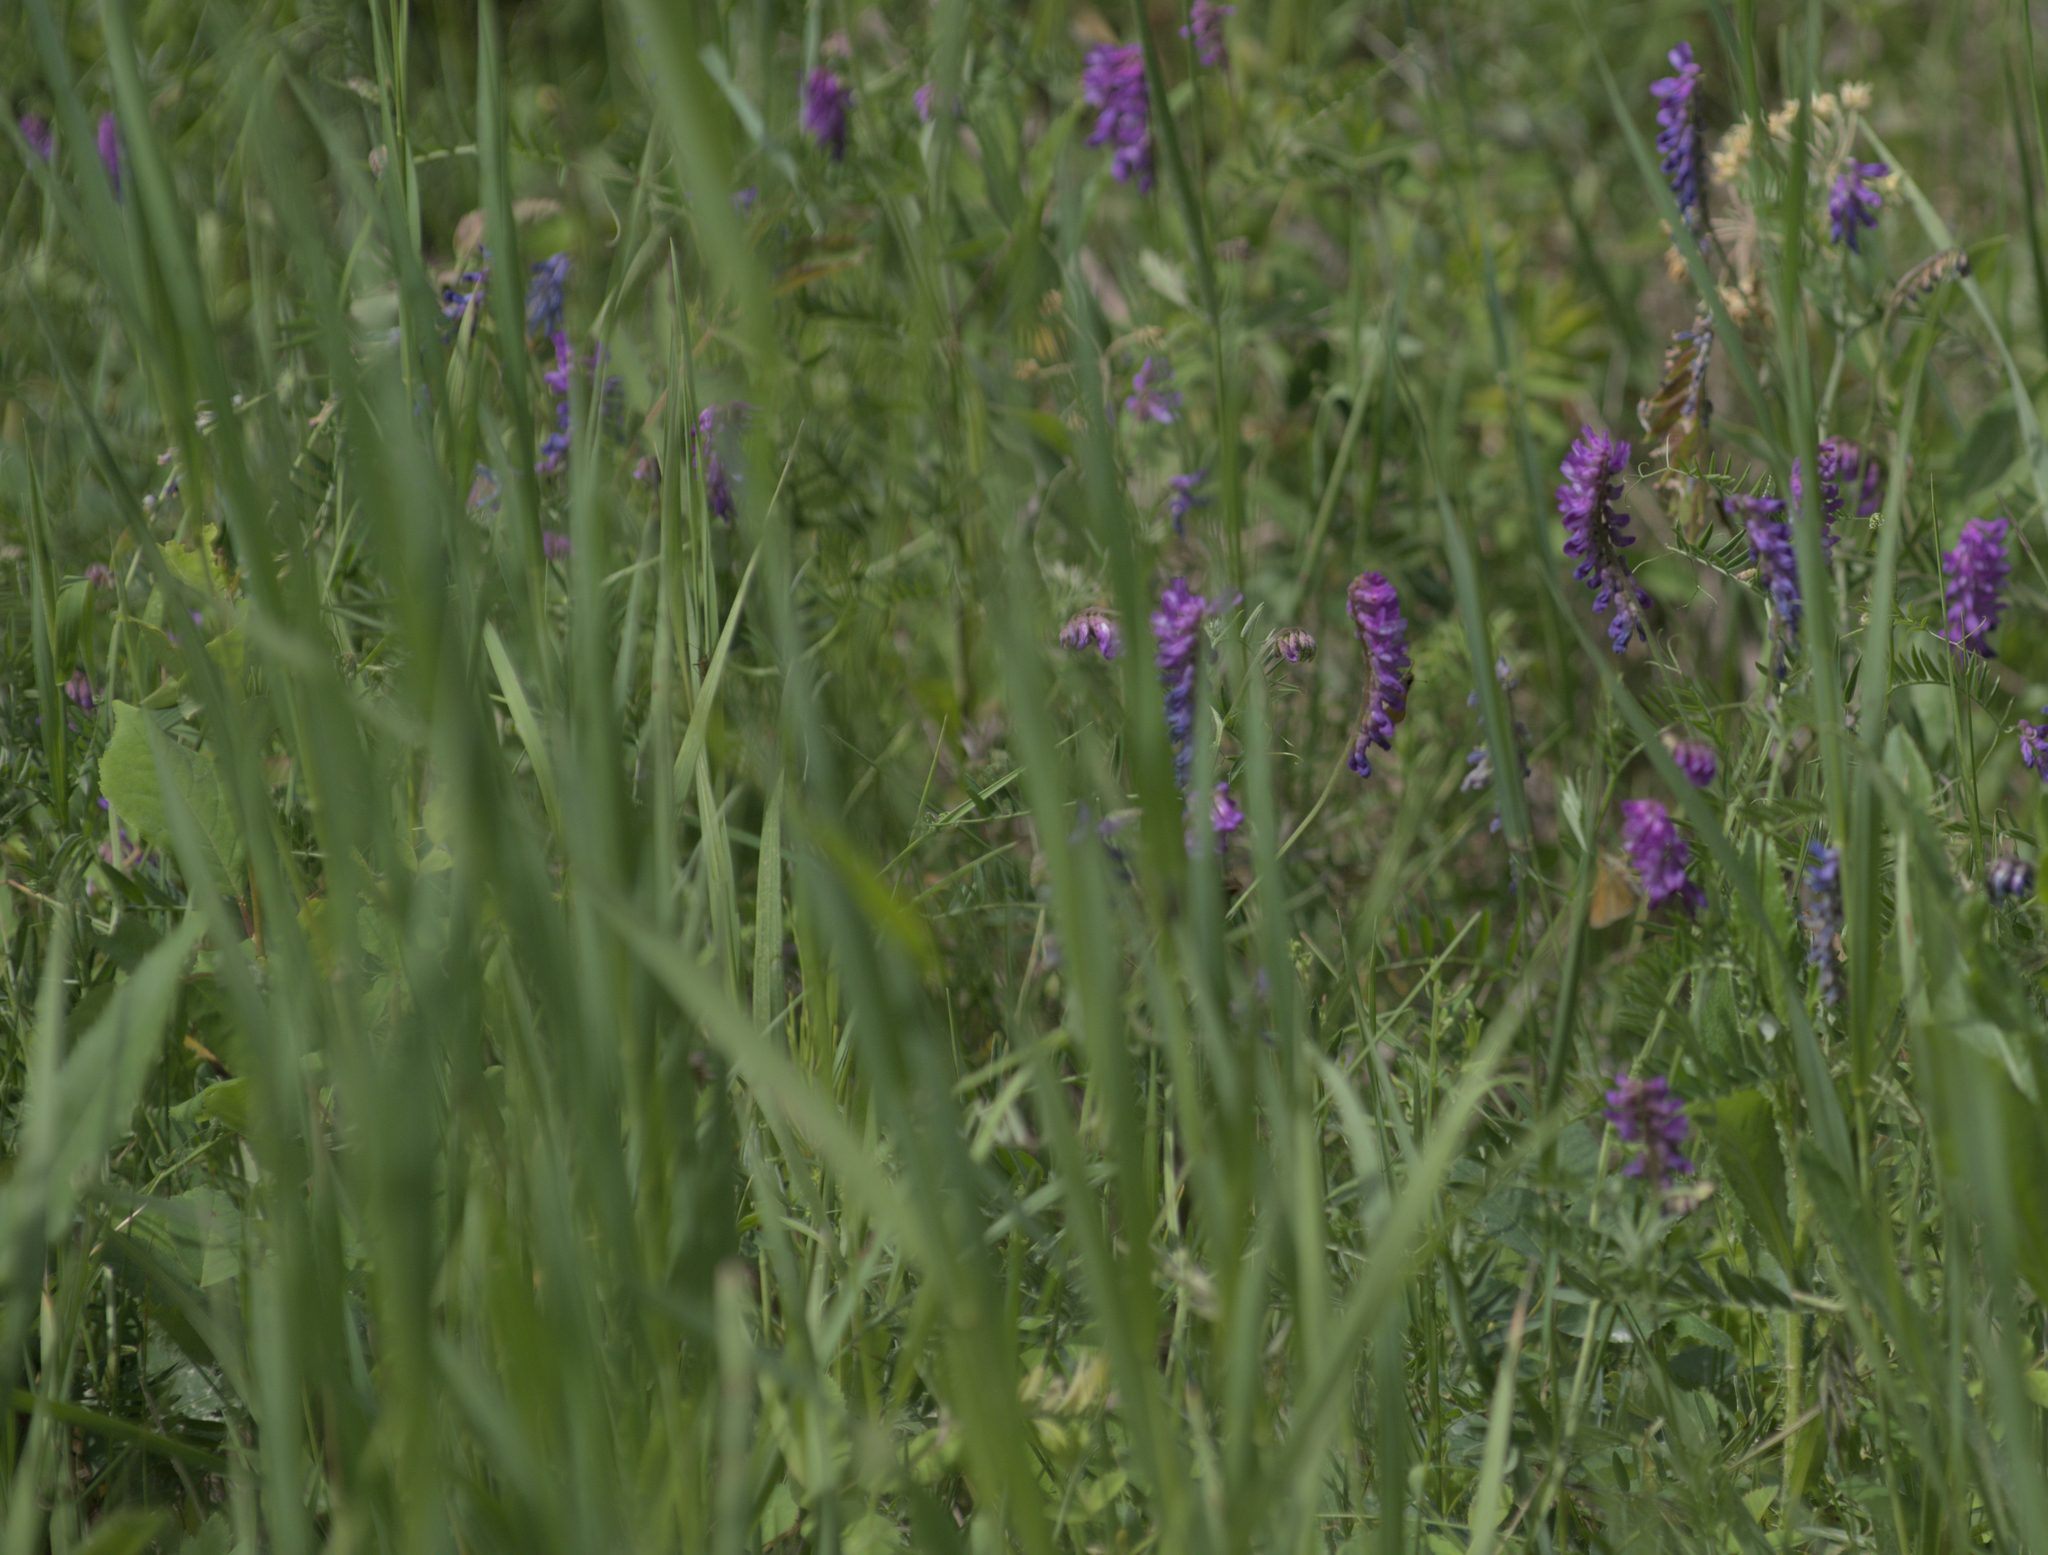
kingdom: Plantae
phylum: Tracheophyta
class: Magnoliopsida
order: Fabales
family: Fabaceae
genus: Vicia
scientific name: Vicia cracca
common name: Bird vetch
